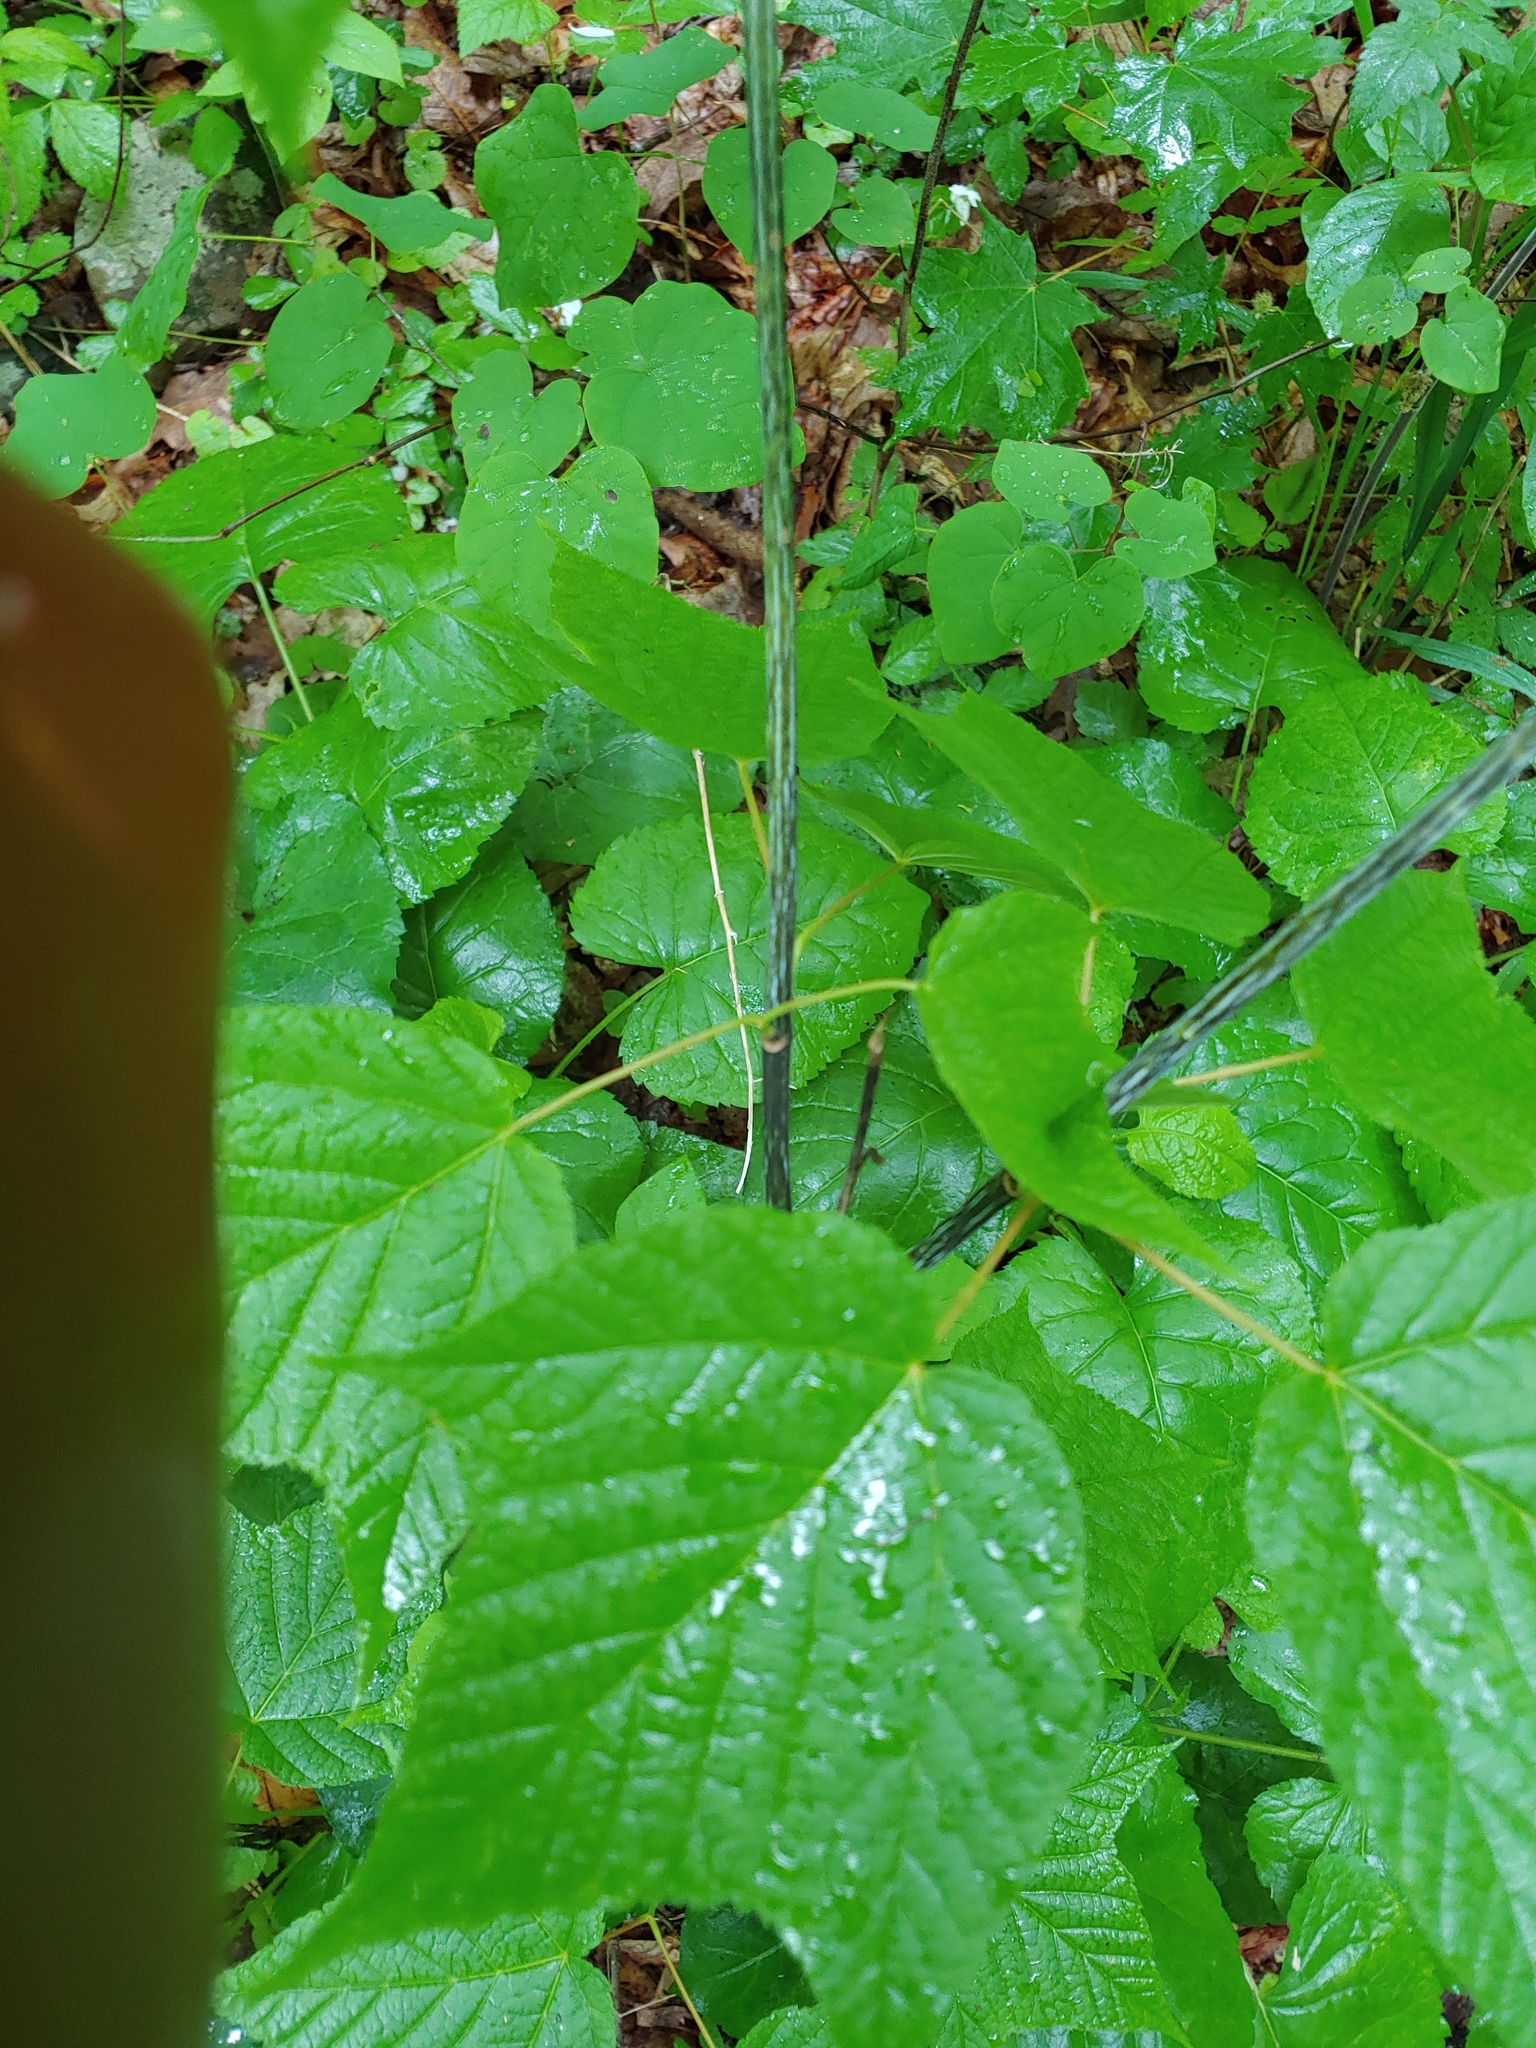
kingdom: Plantae
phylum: Tracheophyta
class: Magnoliopsida
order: Sapindales
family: Sapindaceae
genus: Acer
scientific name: Acer pensylvanicum
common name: Moosewood
